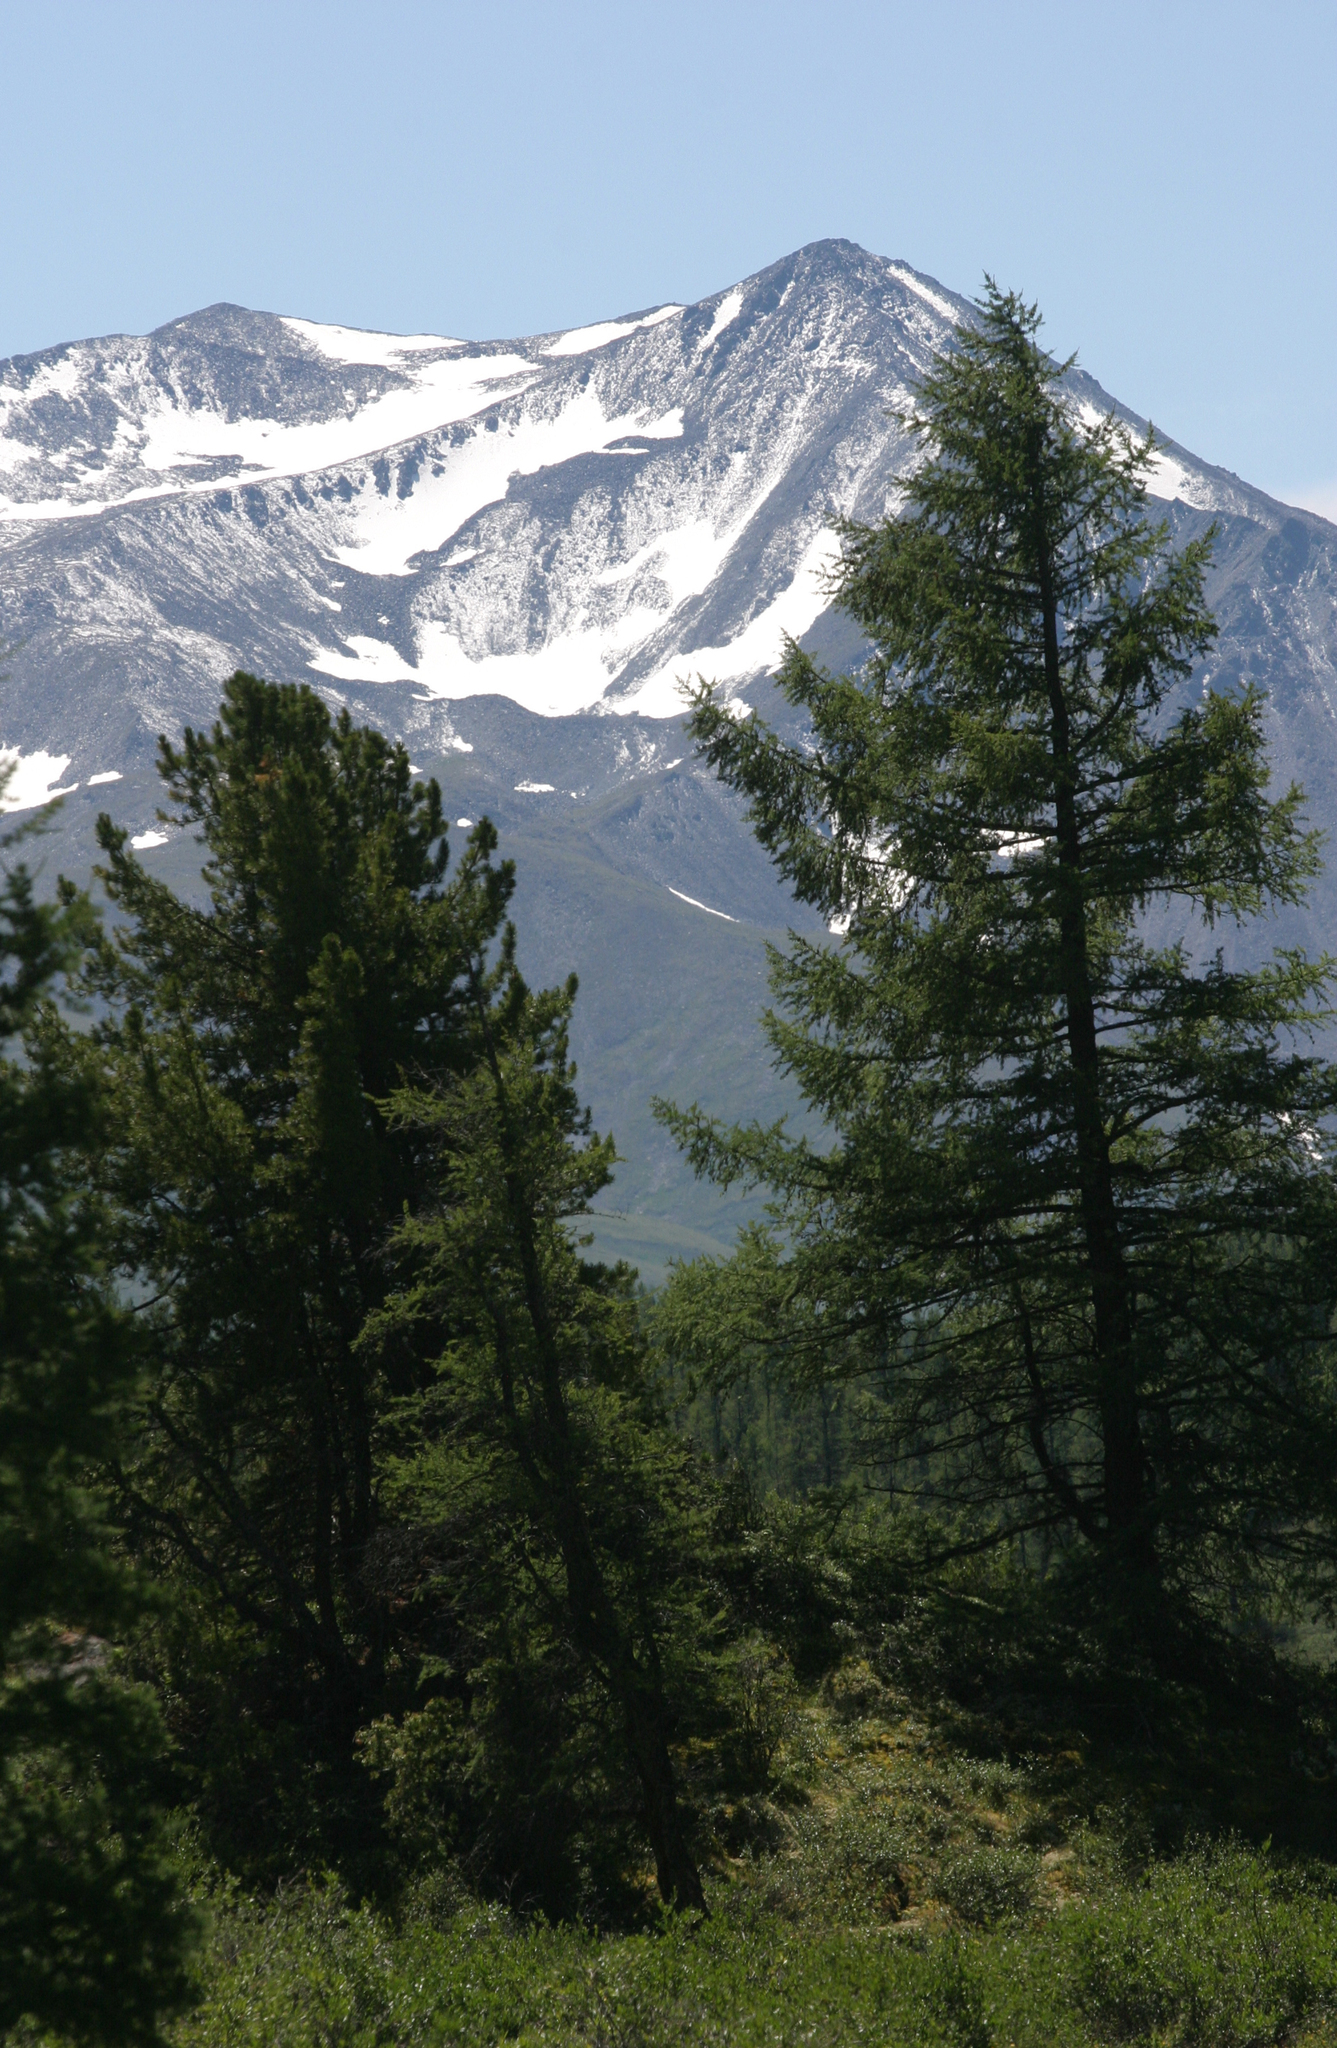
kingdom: Plantae
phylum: Tracheophyta
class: Pinopsida
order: Pinales
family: Pinaceae
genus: Pinus
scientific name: Pinus sibirica
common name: Siberian pine
